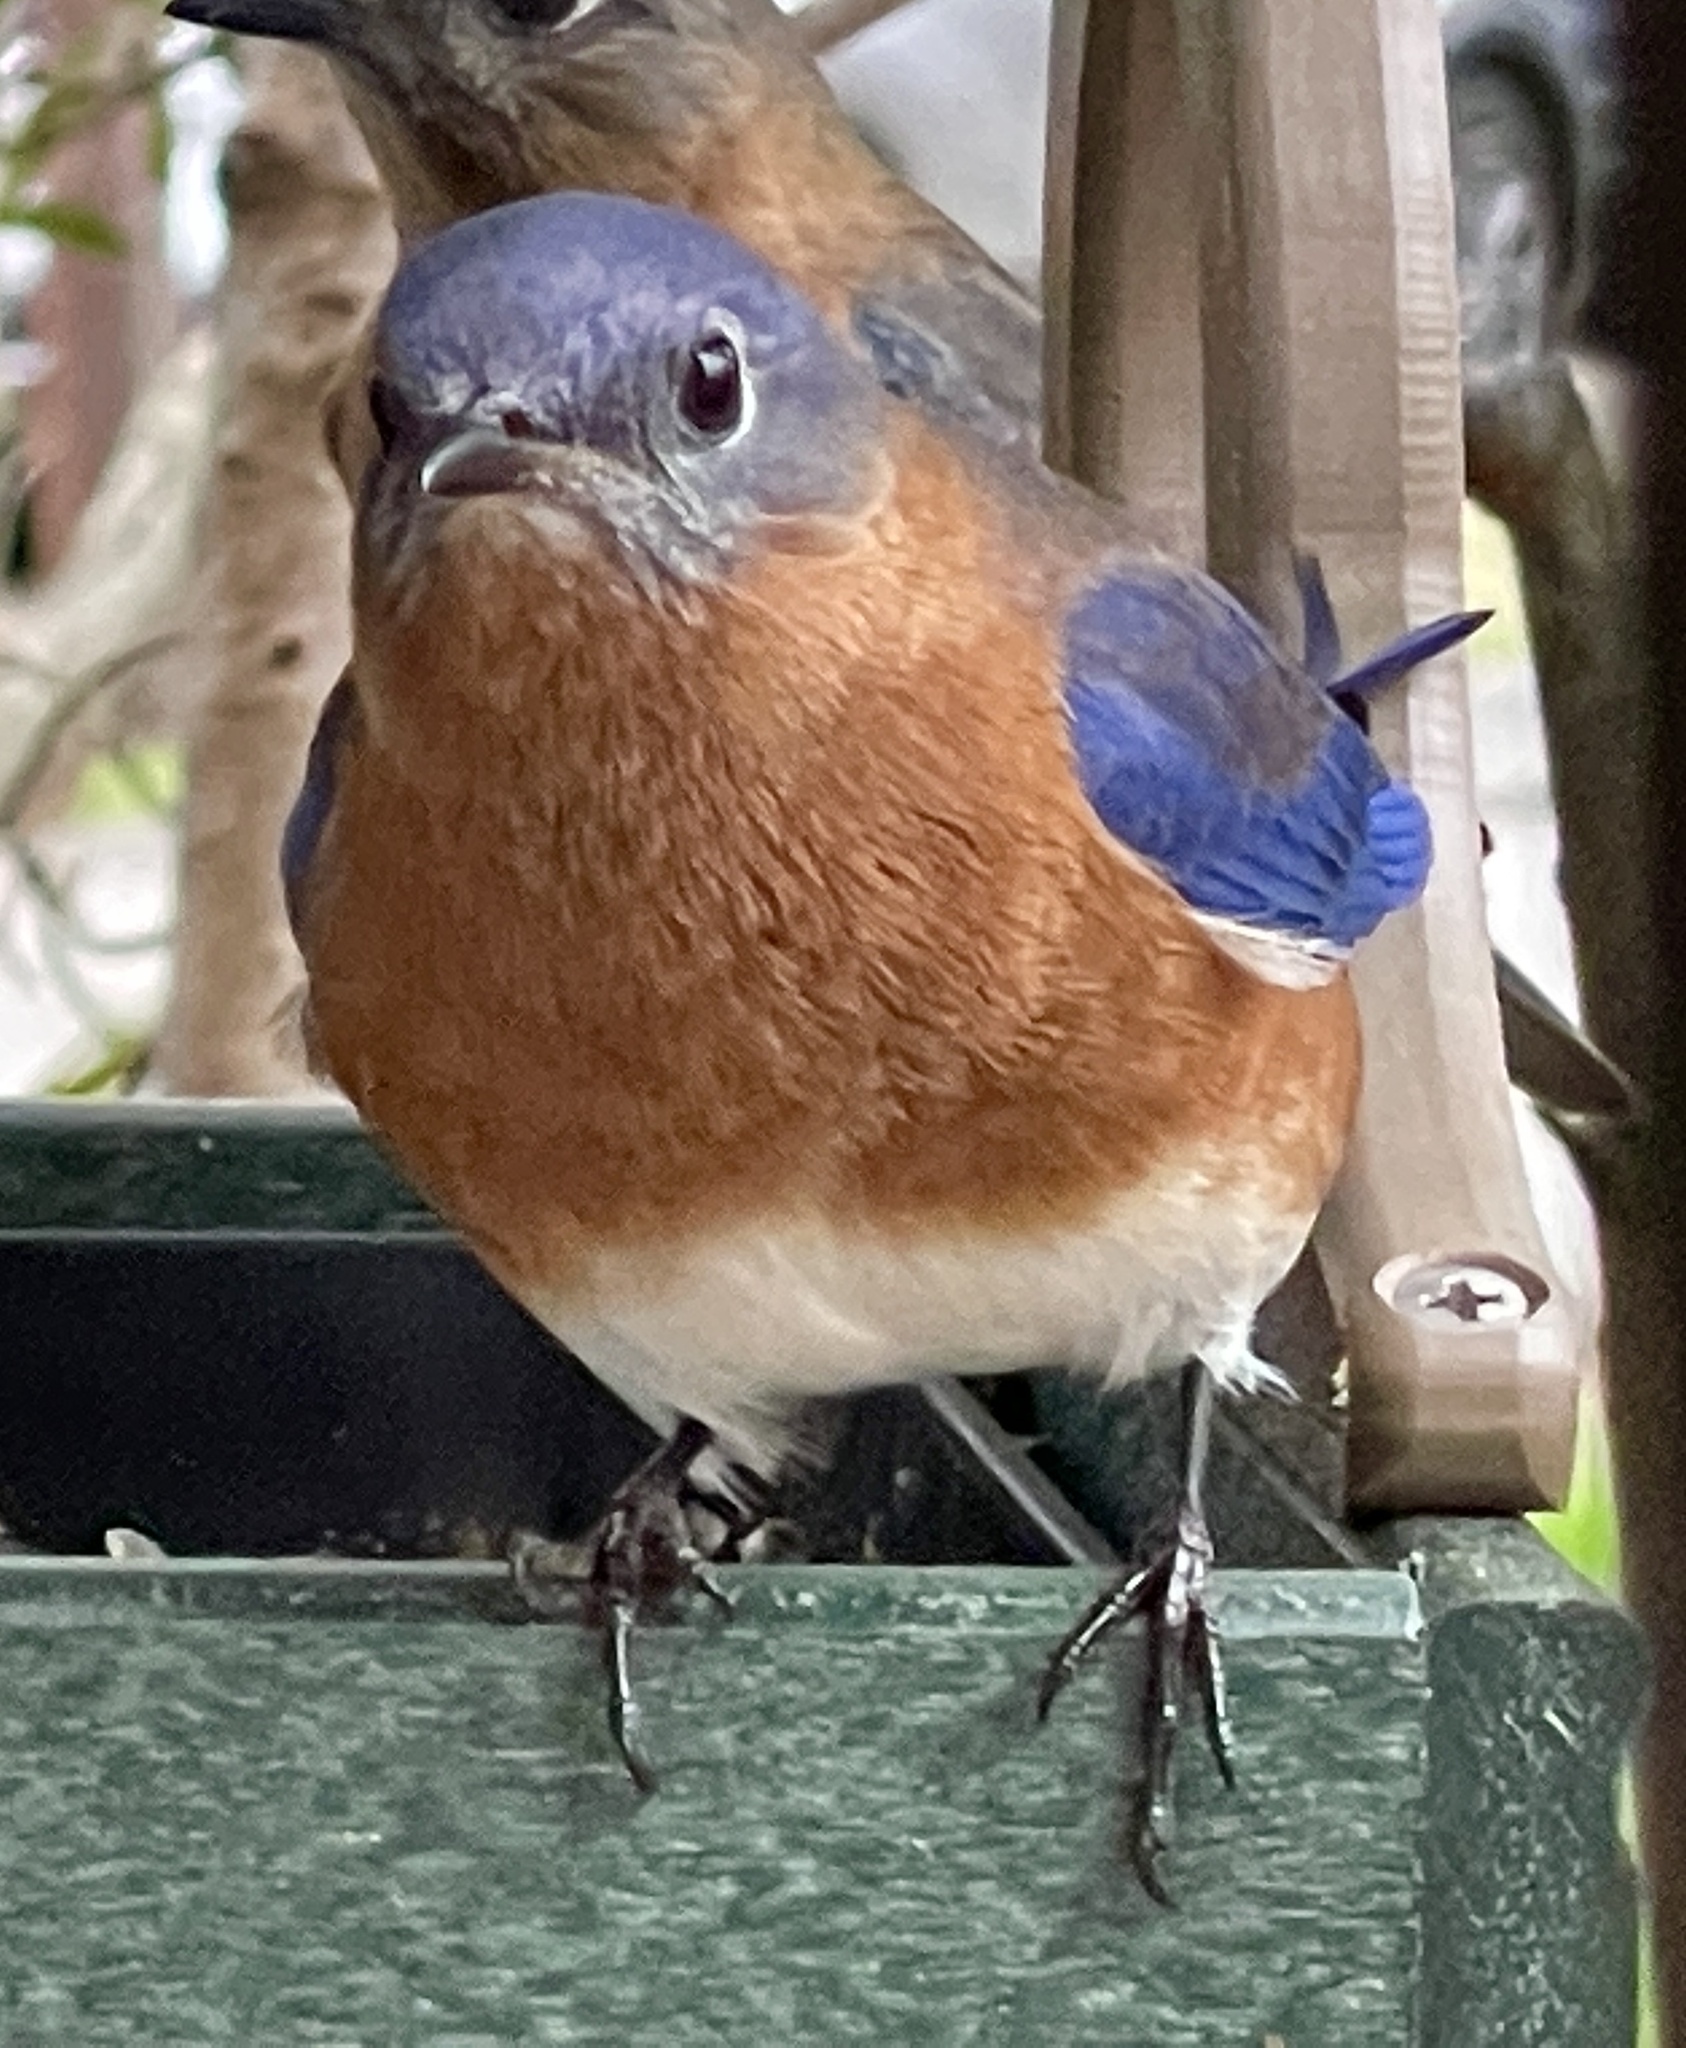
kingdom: Animalia
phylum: Chordata
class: Aves
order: Passeriformes
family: Turdidae
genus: Sialia
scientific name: Sialia sialis
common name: Eastern bluebird
